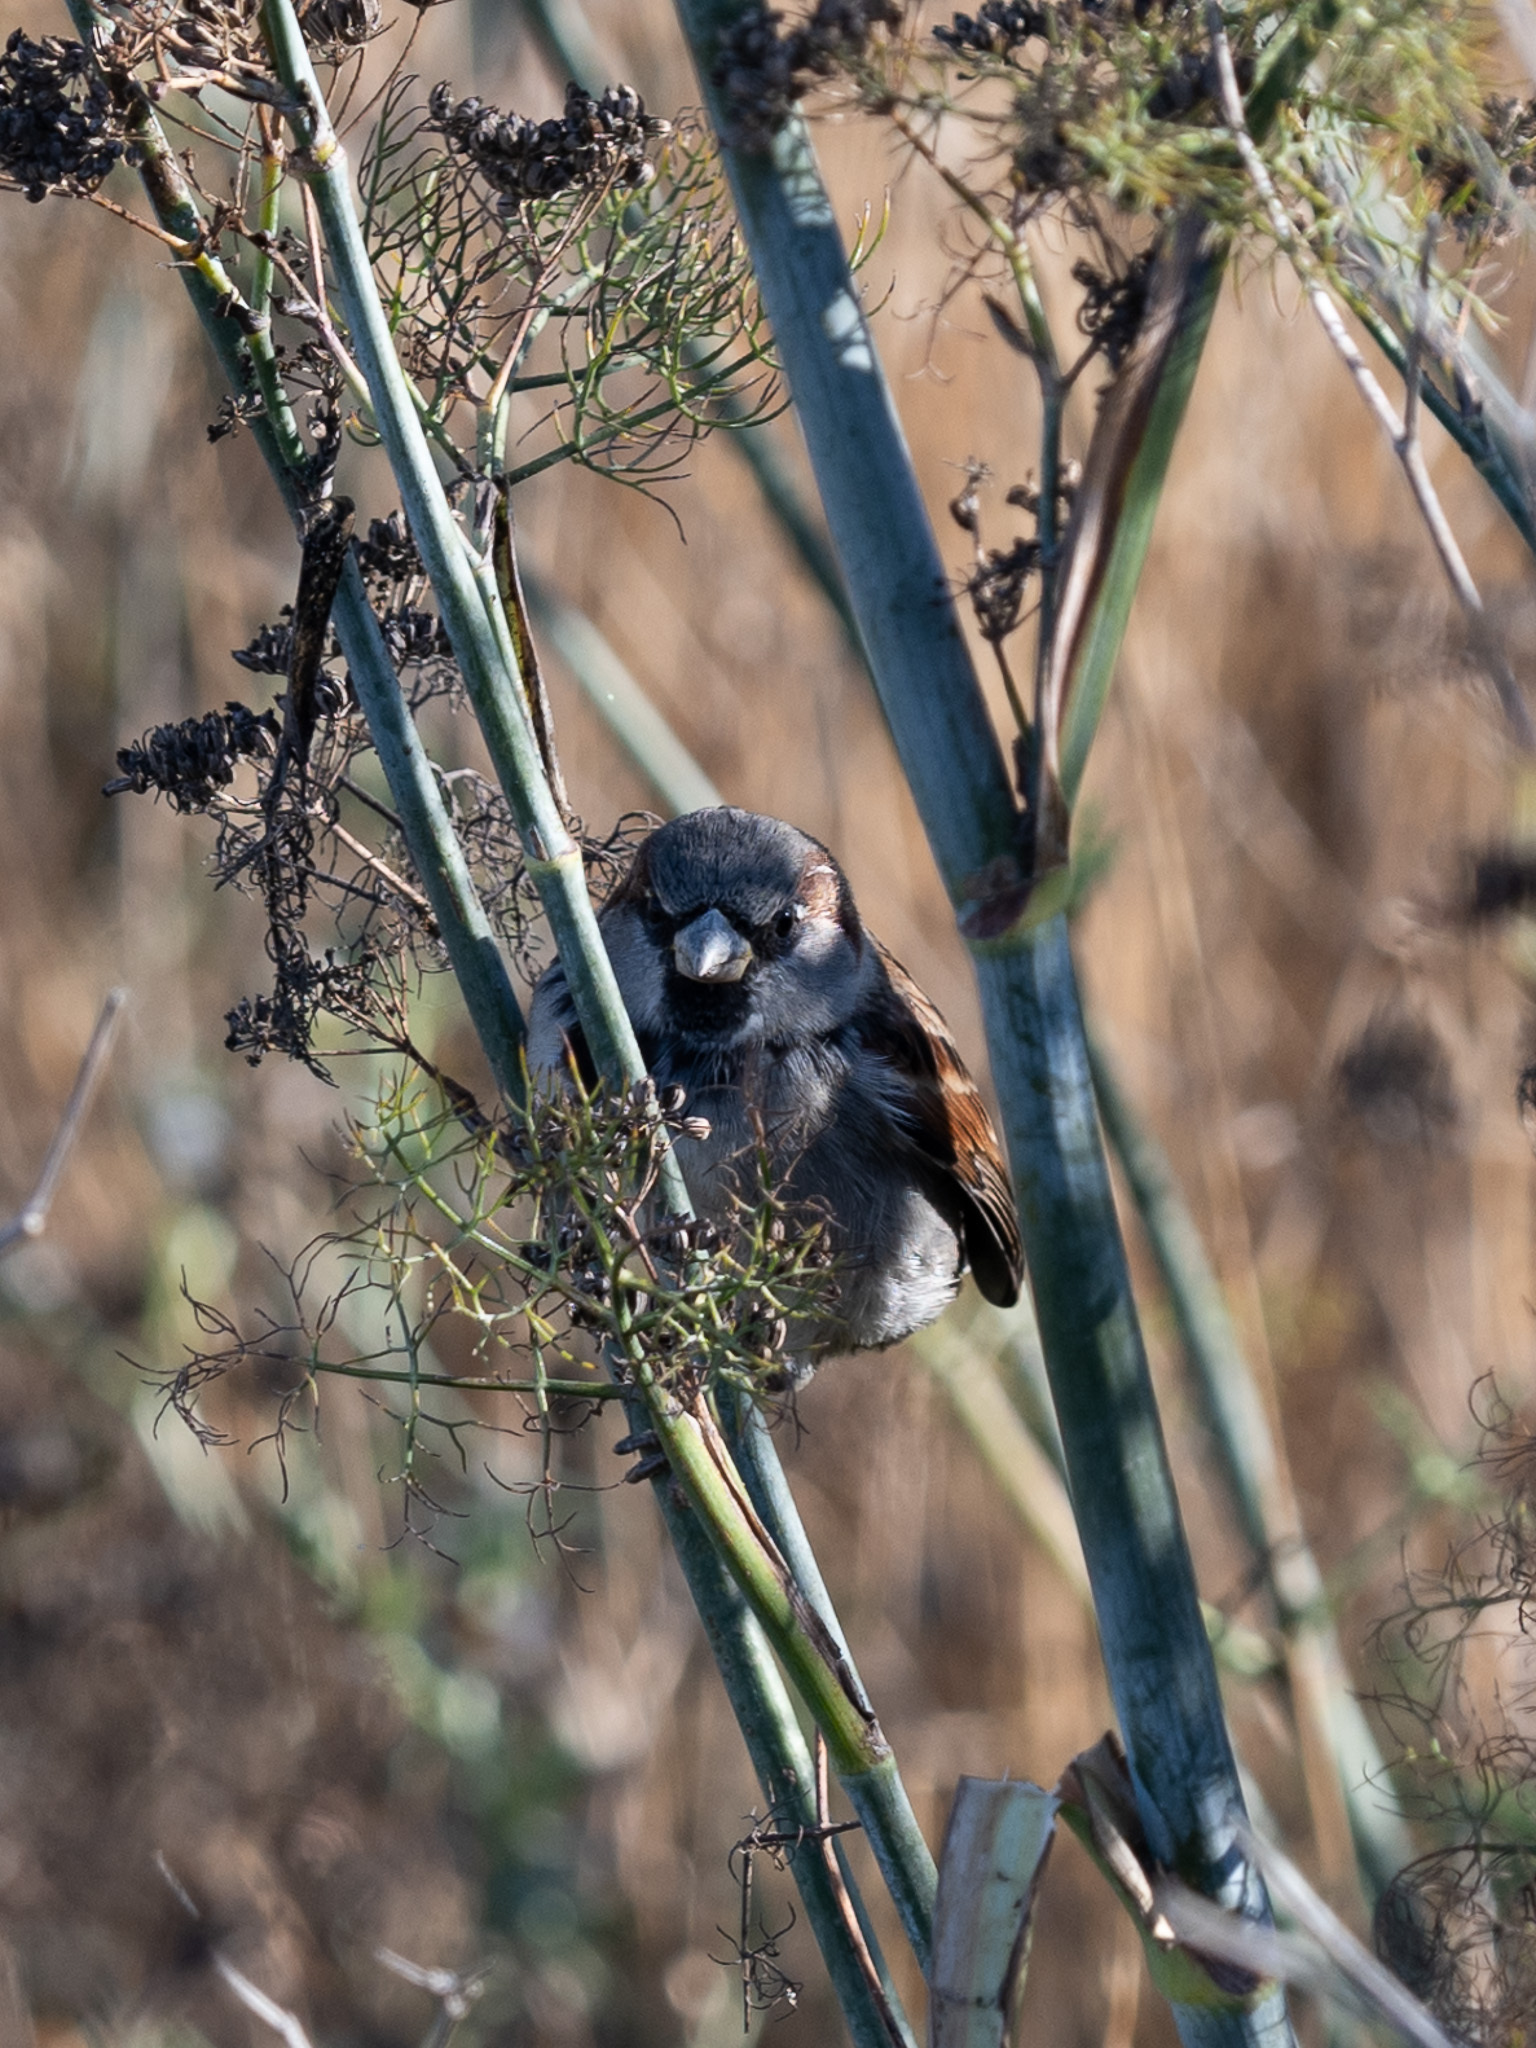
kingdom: Animalia
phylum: Chordata
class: Aves
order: Passeriformes
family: Passeridae
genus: Passer
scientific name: Passer domesticus
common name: House sparrow
